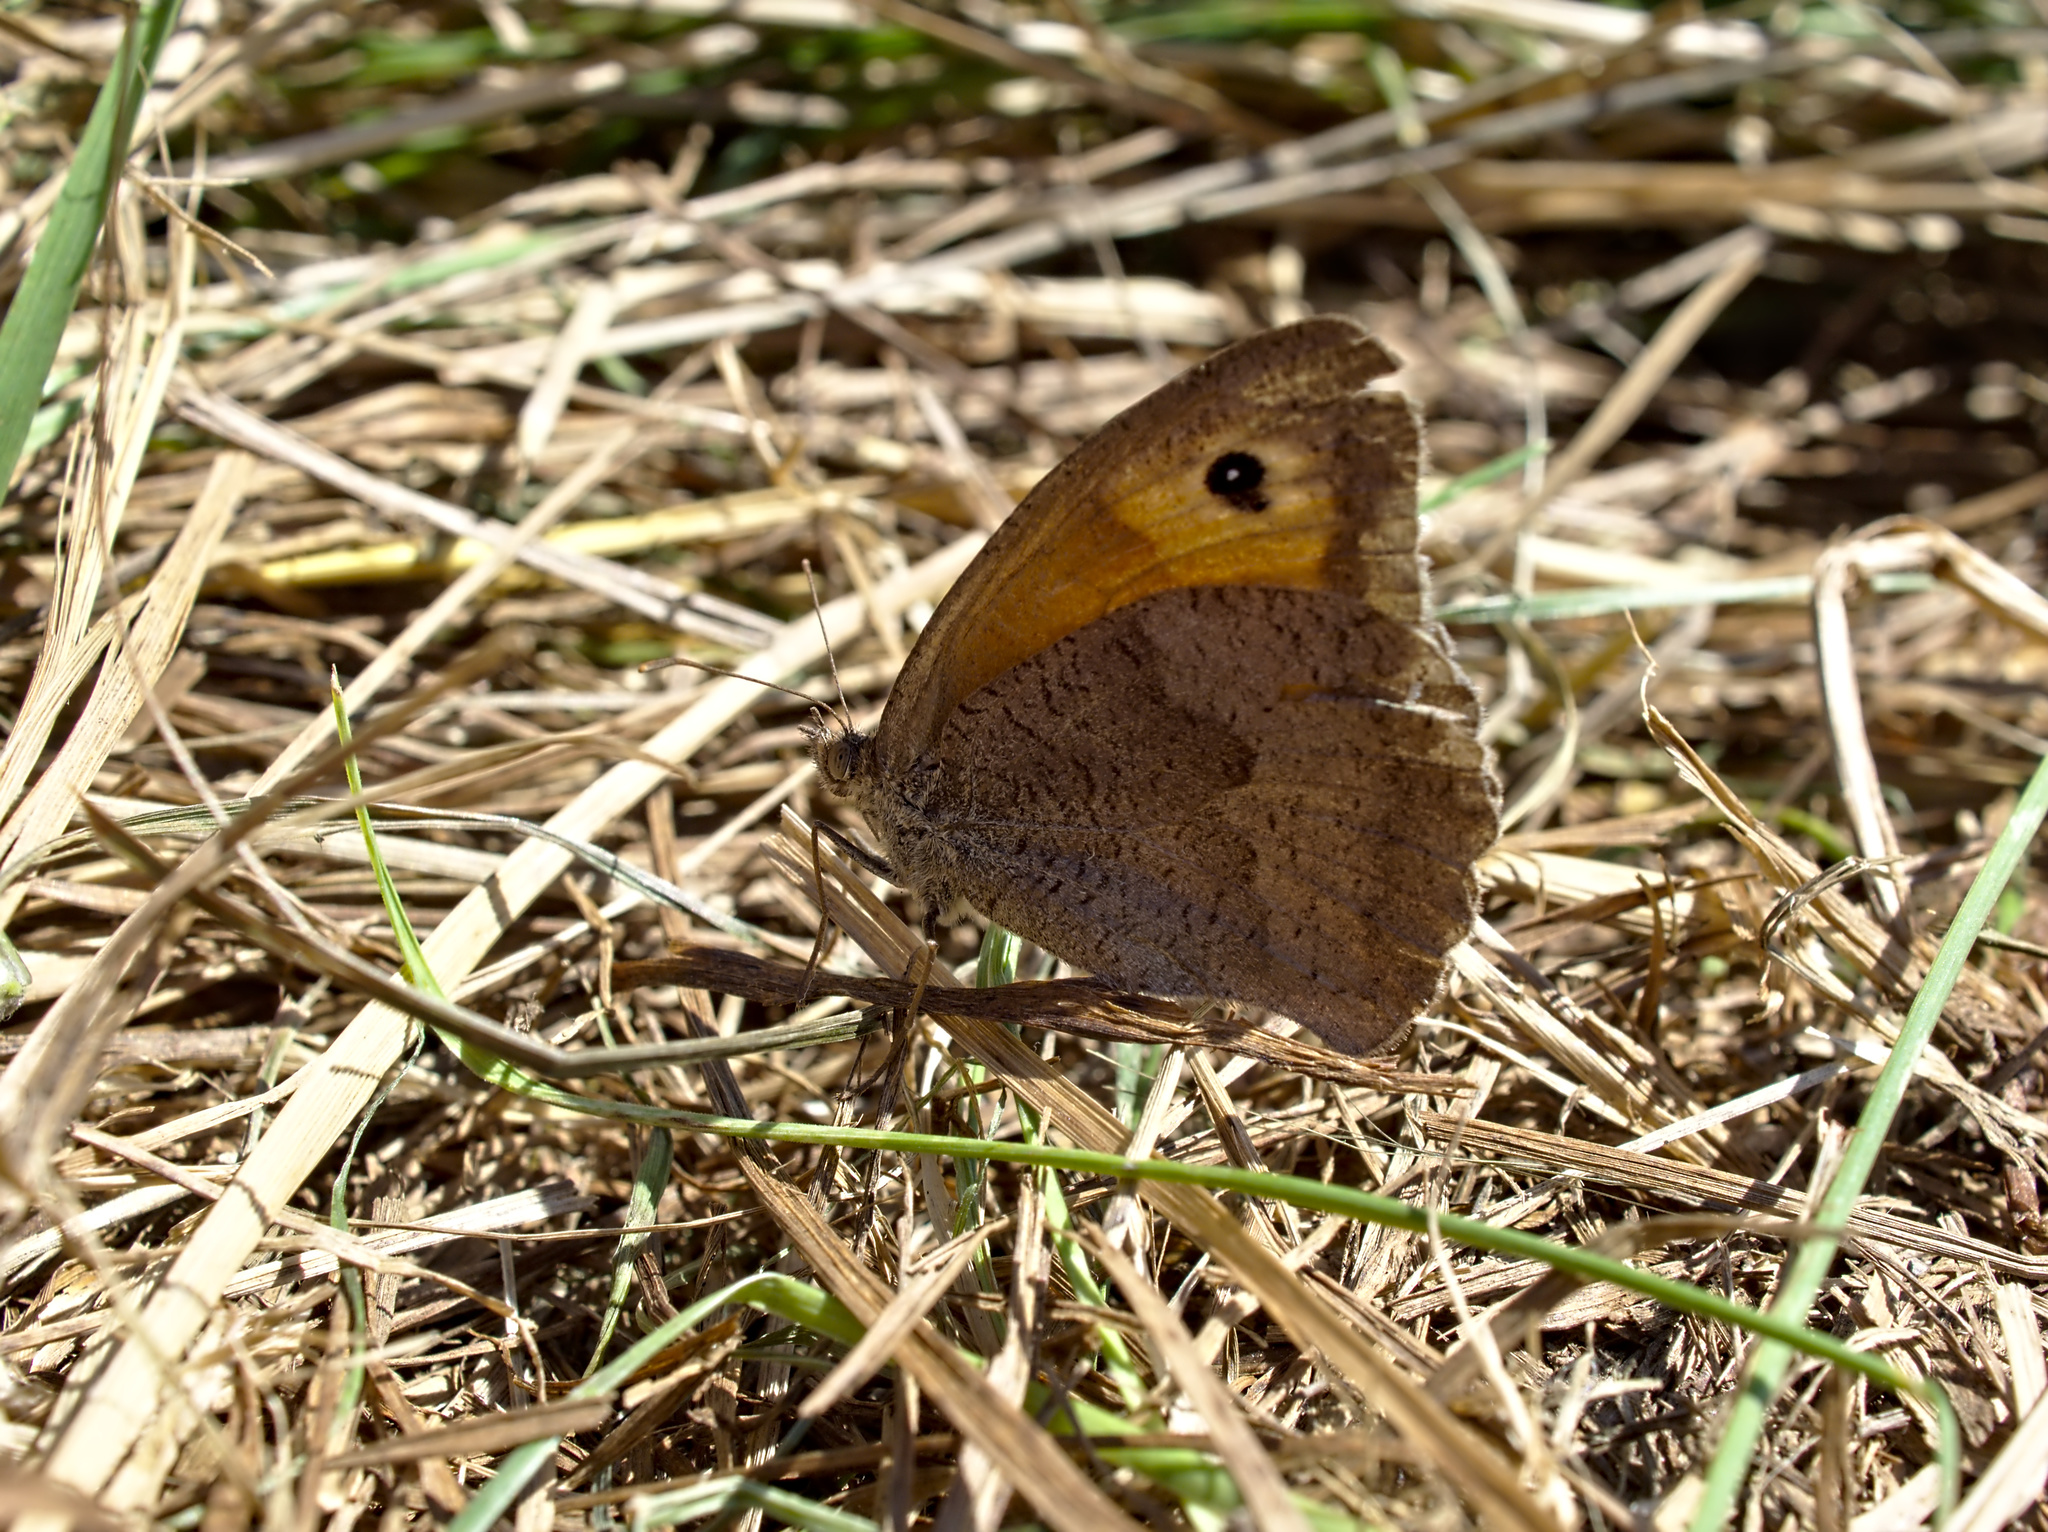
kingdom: Animalia
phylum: Arthropoda
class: Insecta
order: Lepidoptera
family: Nymphalidae
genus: Maniola
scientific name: Maniola jurtina
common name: Meadow brown
